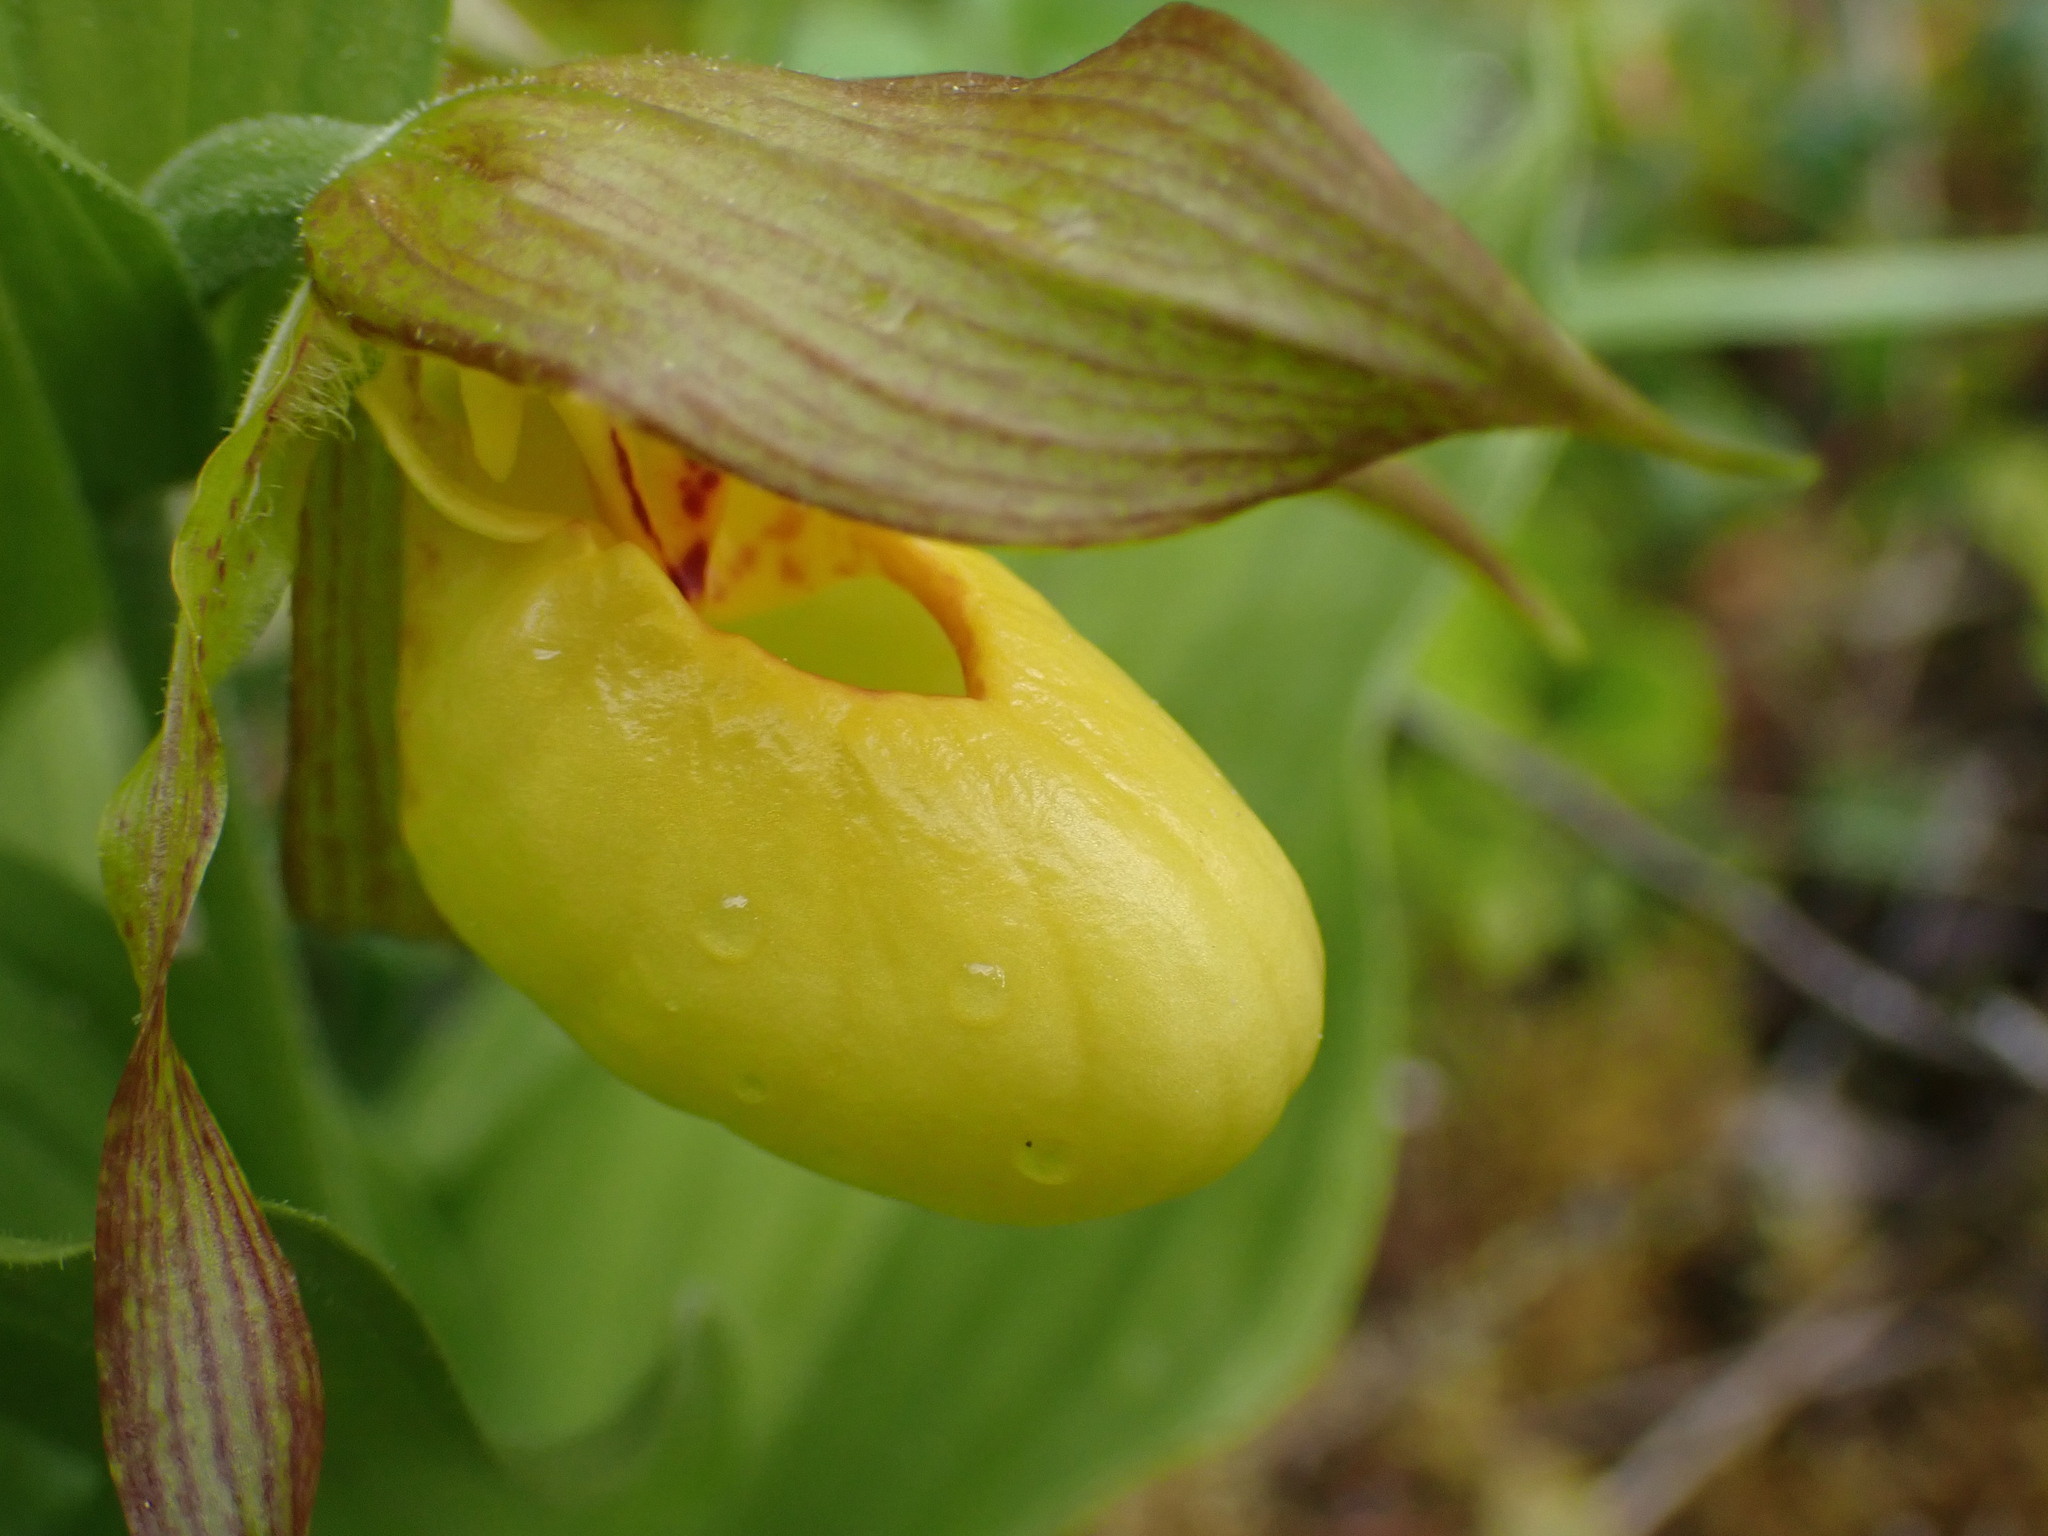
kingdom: Plantae
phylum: Tracheophyta
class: Liliopsida
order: Asparagales
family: Orchidaceae
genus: Cypripedium
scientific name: Cypripedium parviflorum
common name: American yellow lady's-slipper
